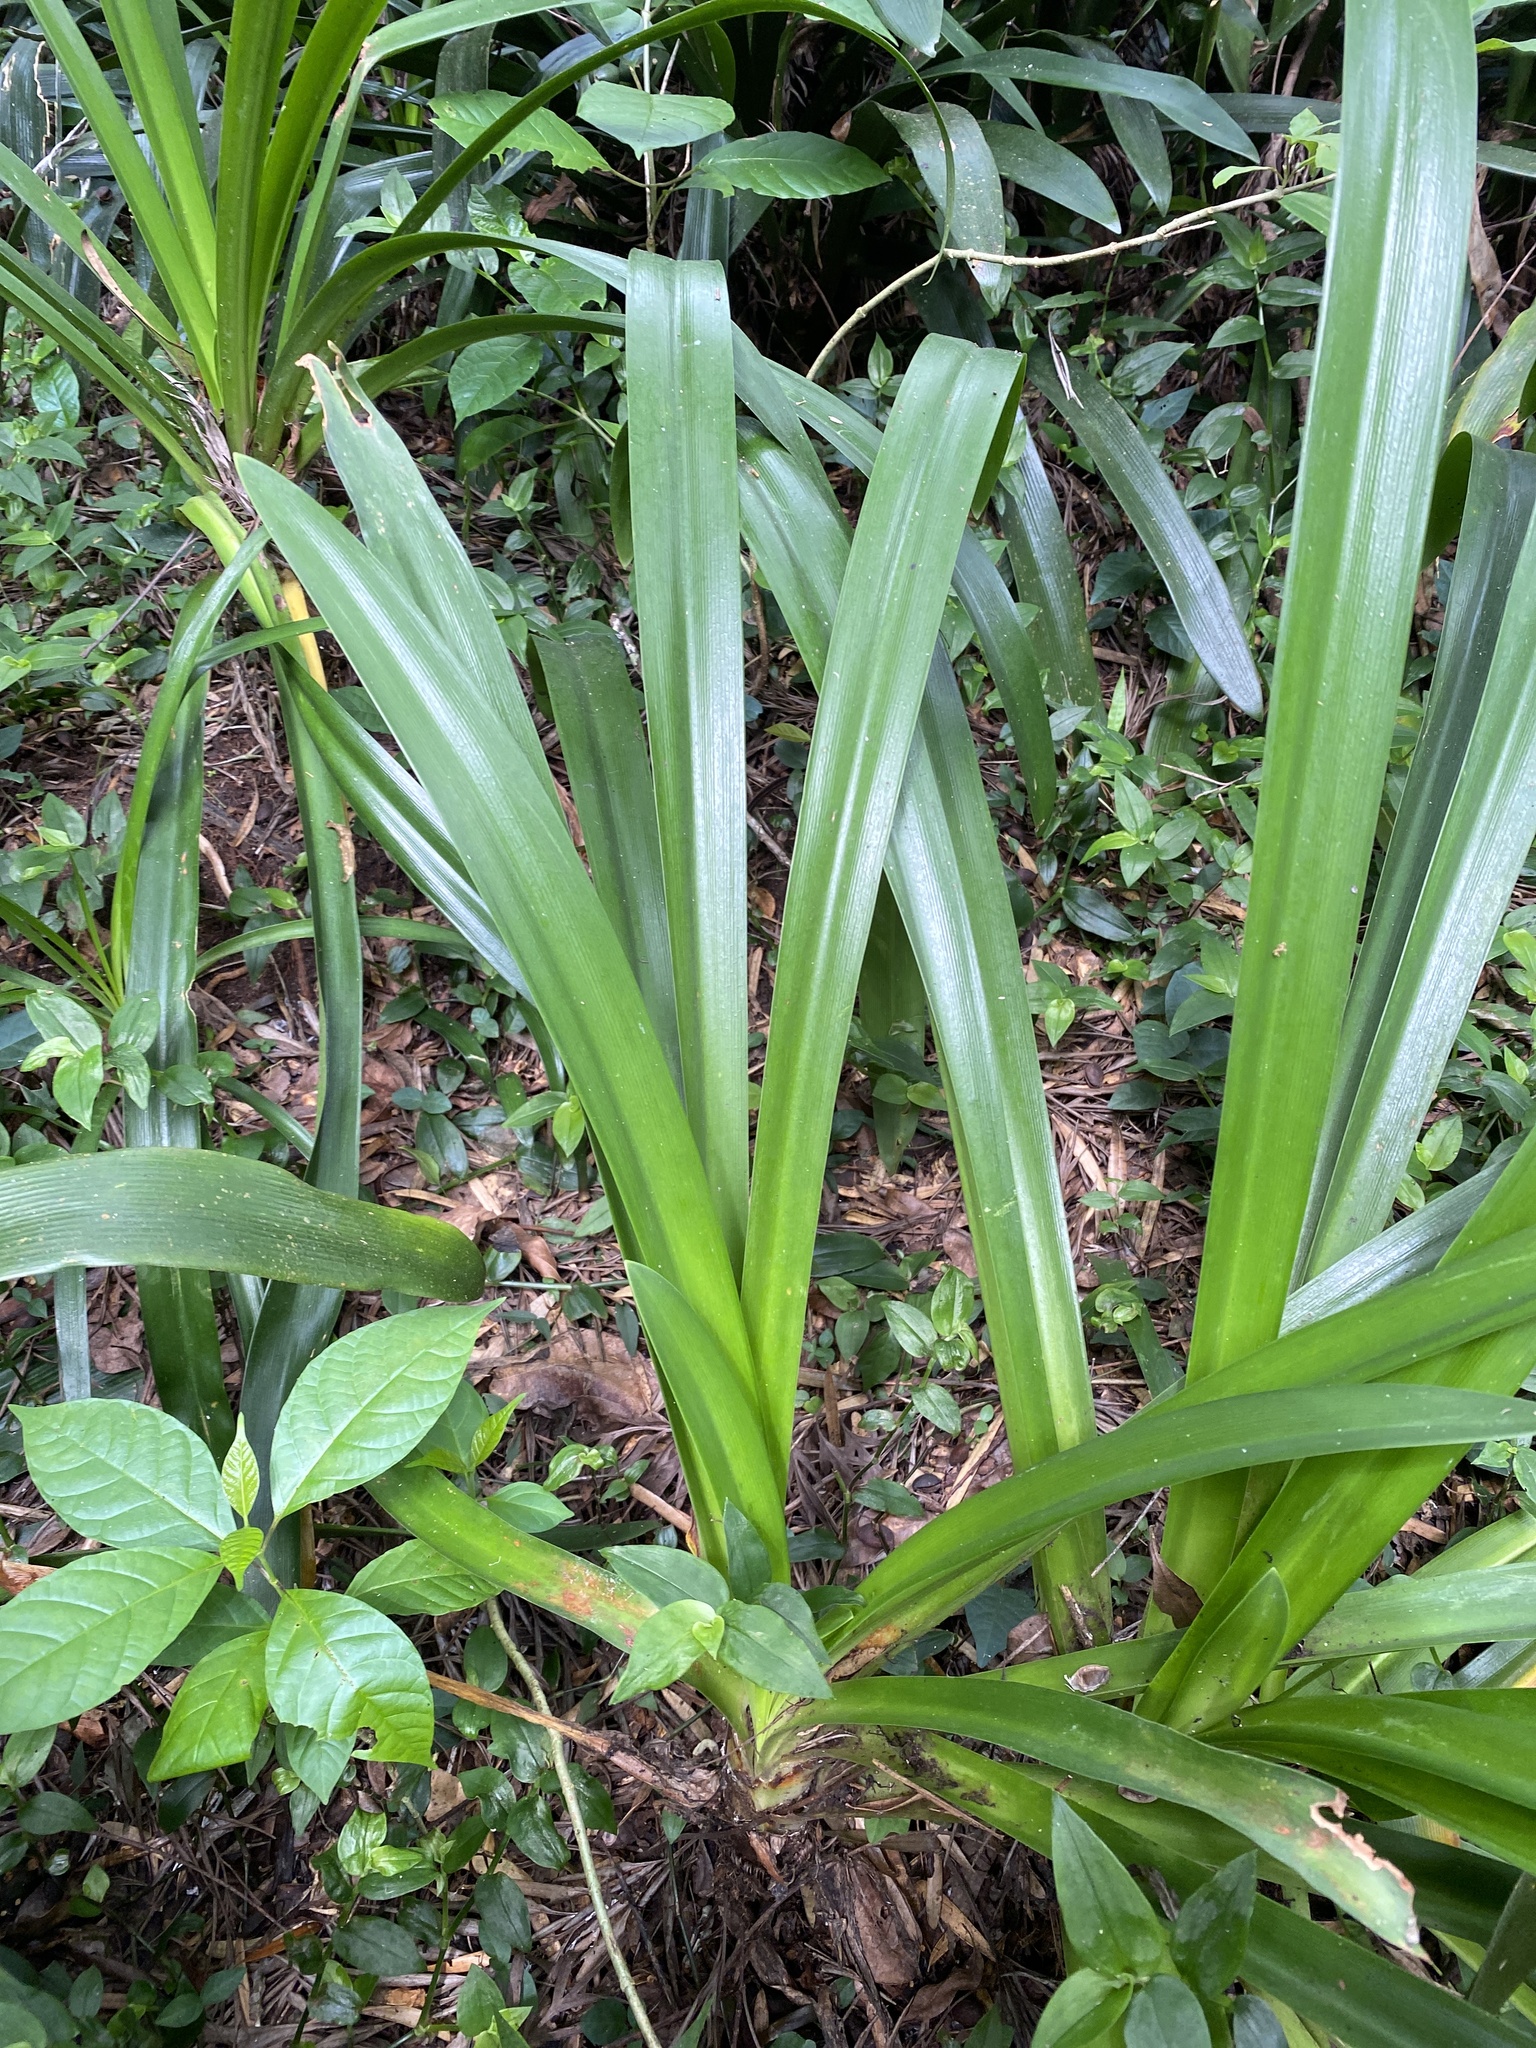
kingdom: Plantae
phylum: Tracheophyta
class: Liliopsida
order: Asparagales
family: Amaryllidaceae
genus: Clivia
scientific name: Clivia miniata
